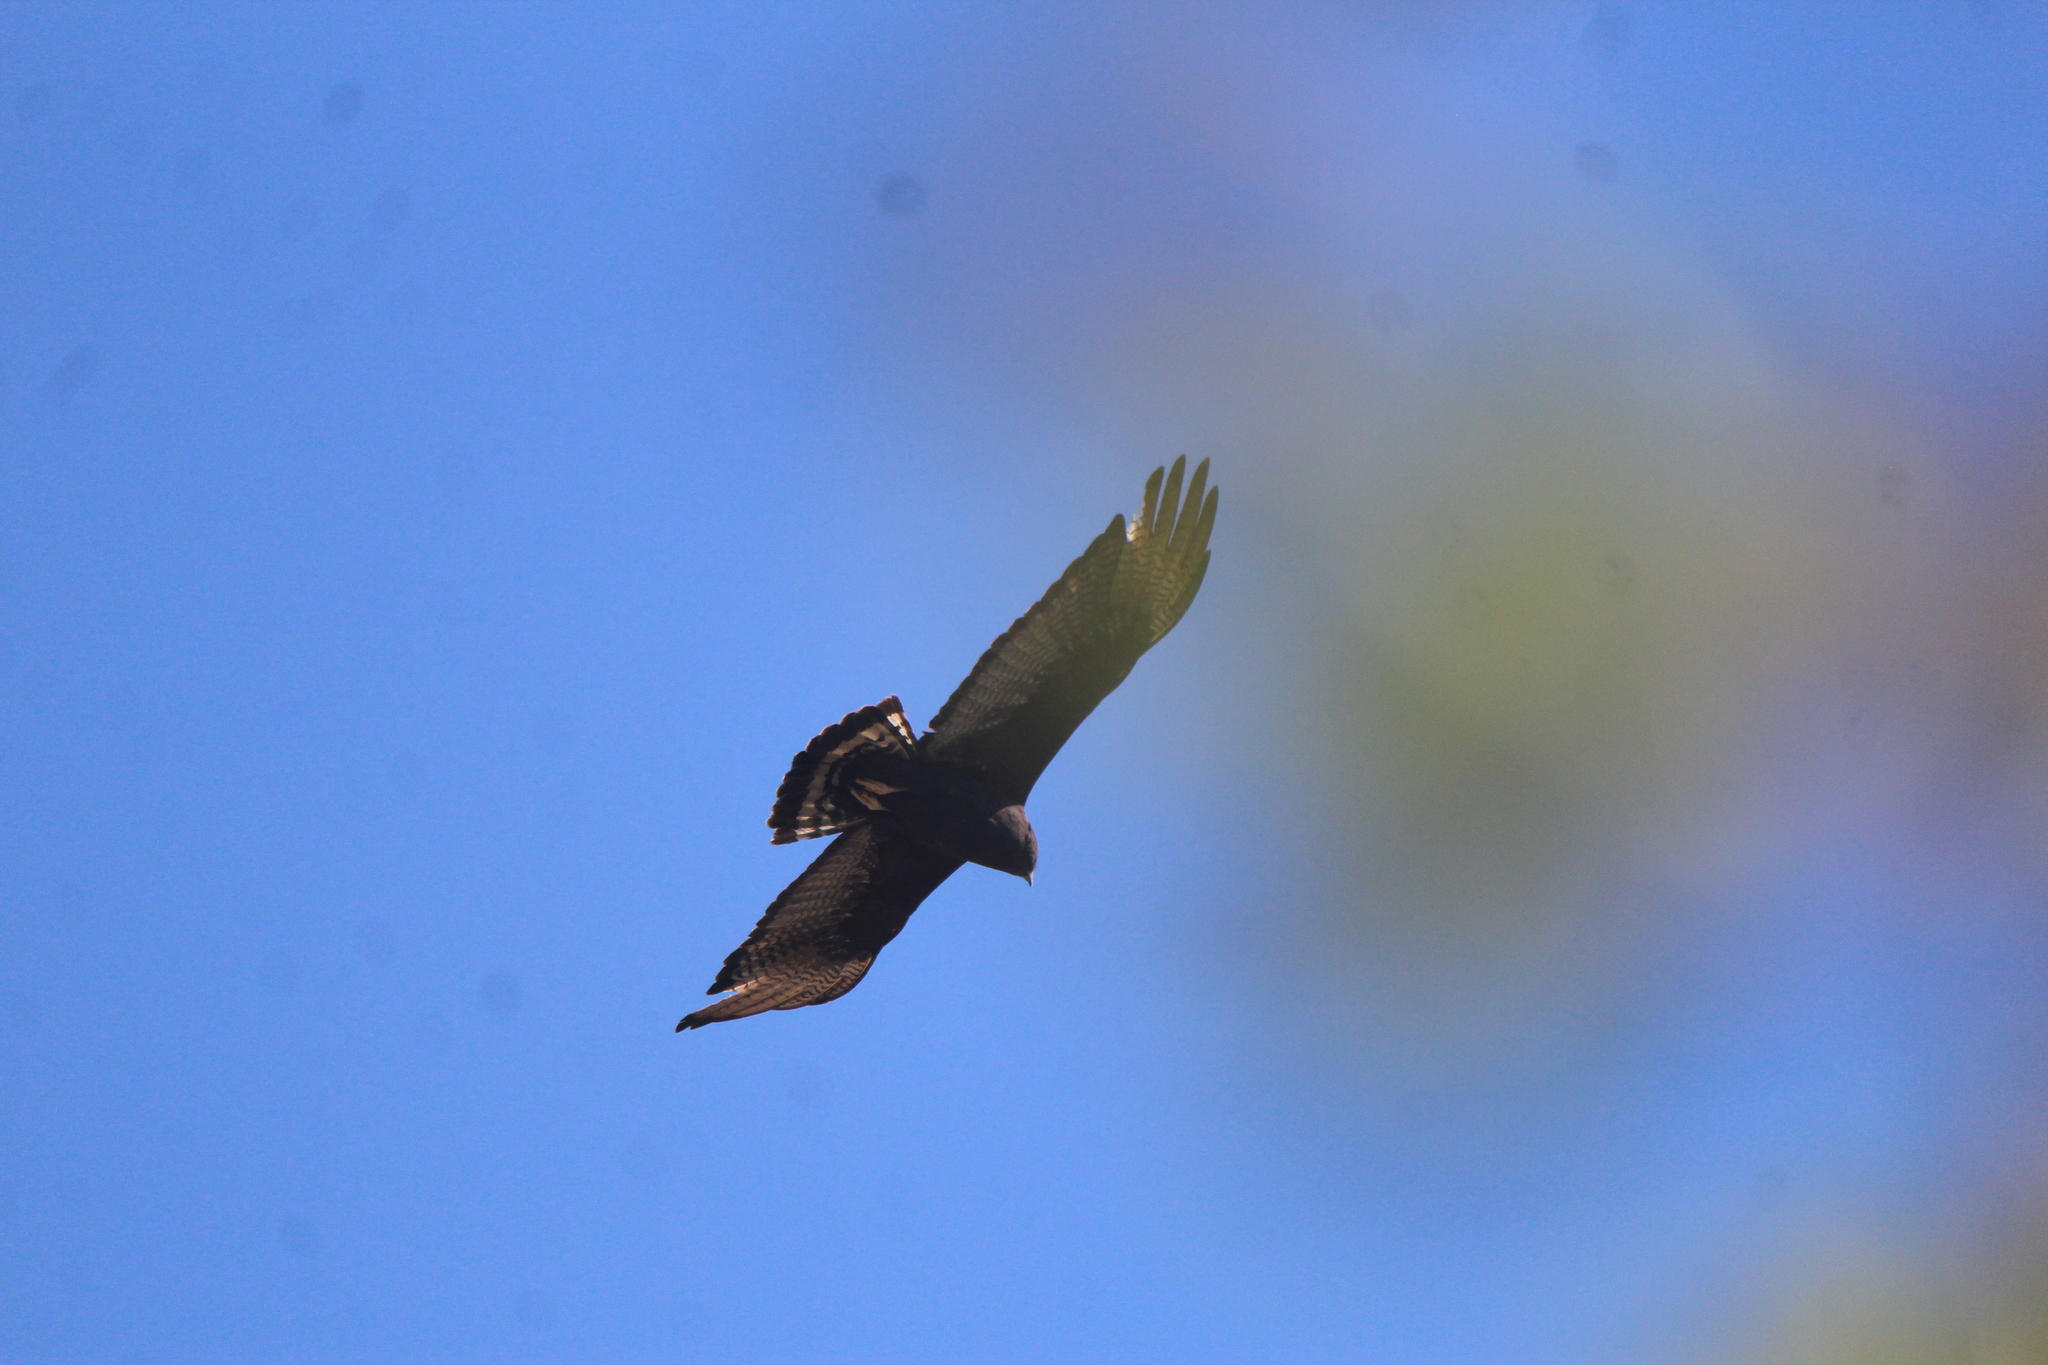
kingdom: Animalia
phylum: Chordata
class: Aves
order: Accipitriformes
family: Accipitridae
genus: Buteo
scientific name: Buteo albonotatus
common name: Zone-tailed hawk
